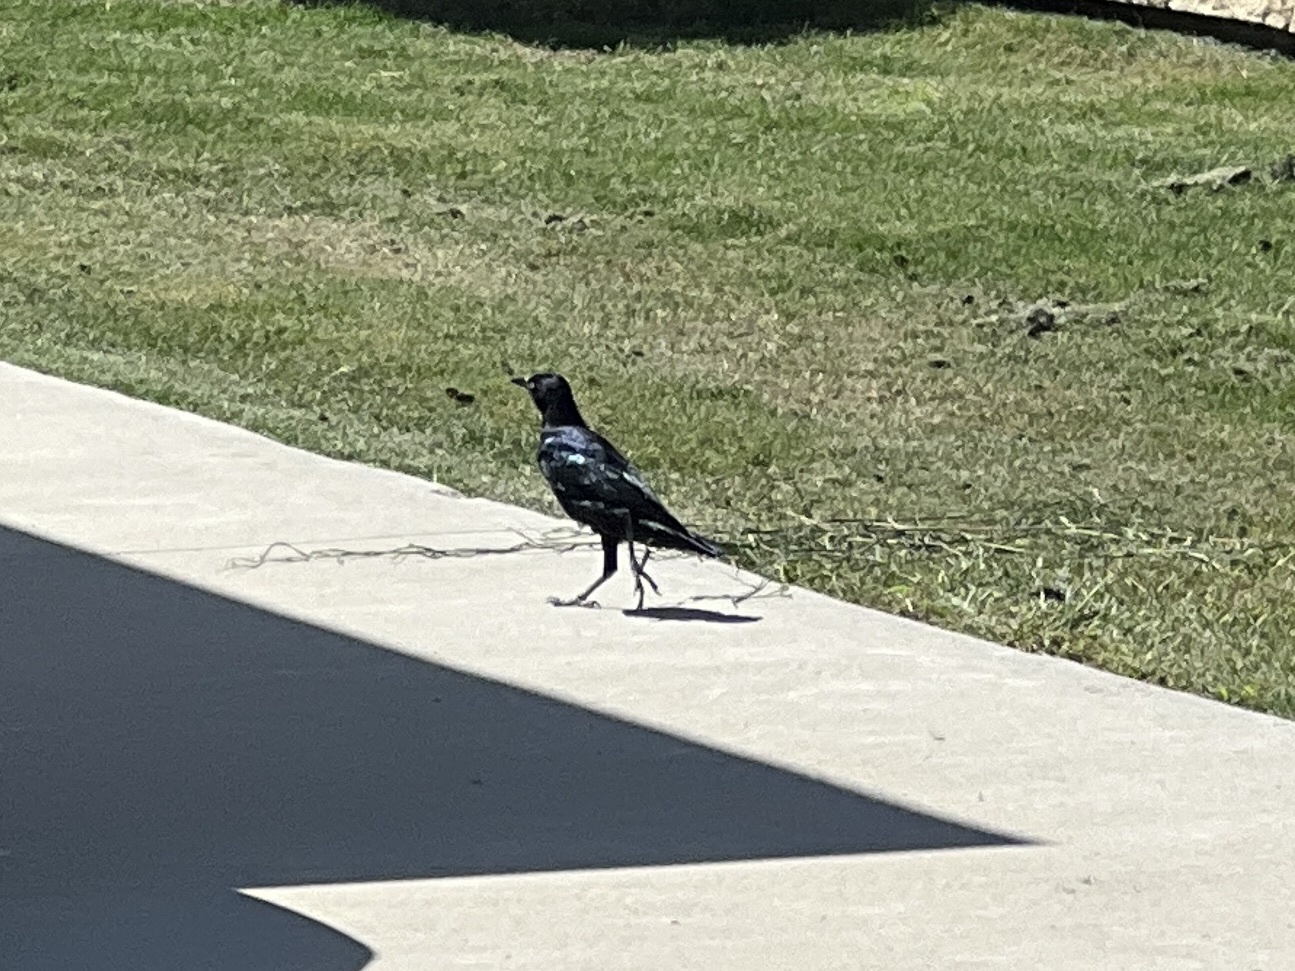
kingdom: Animalia
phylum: Chordata
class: Aves
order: Passeriformes
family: Icteridae
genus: Quiscalus
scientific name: Quiscalus mexicanus
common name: Great-tailed grackle
